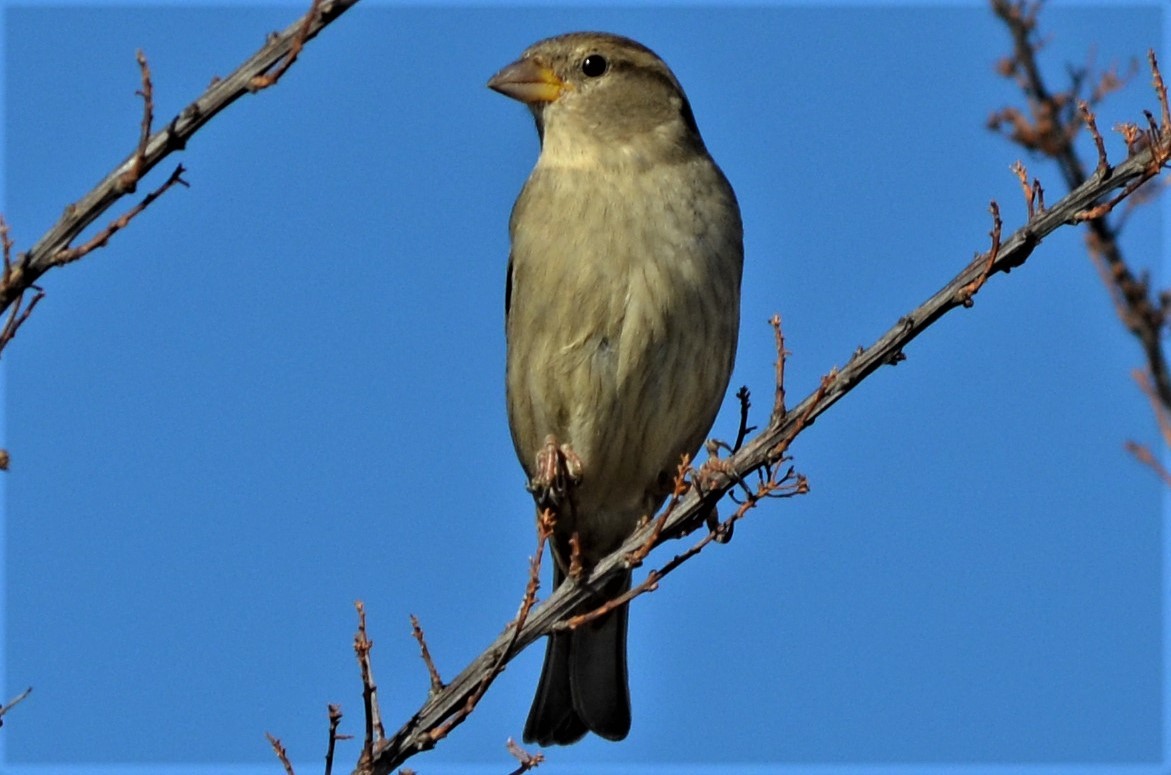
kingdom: Animalia
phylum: Chordata
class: Aves
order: Passeriformes
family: Passeridae
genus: Passer
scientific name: Passer domesticus
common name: House sparrow
